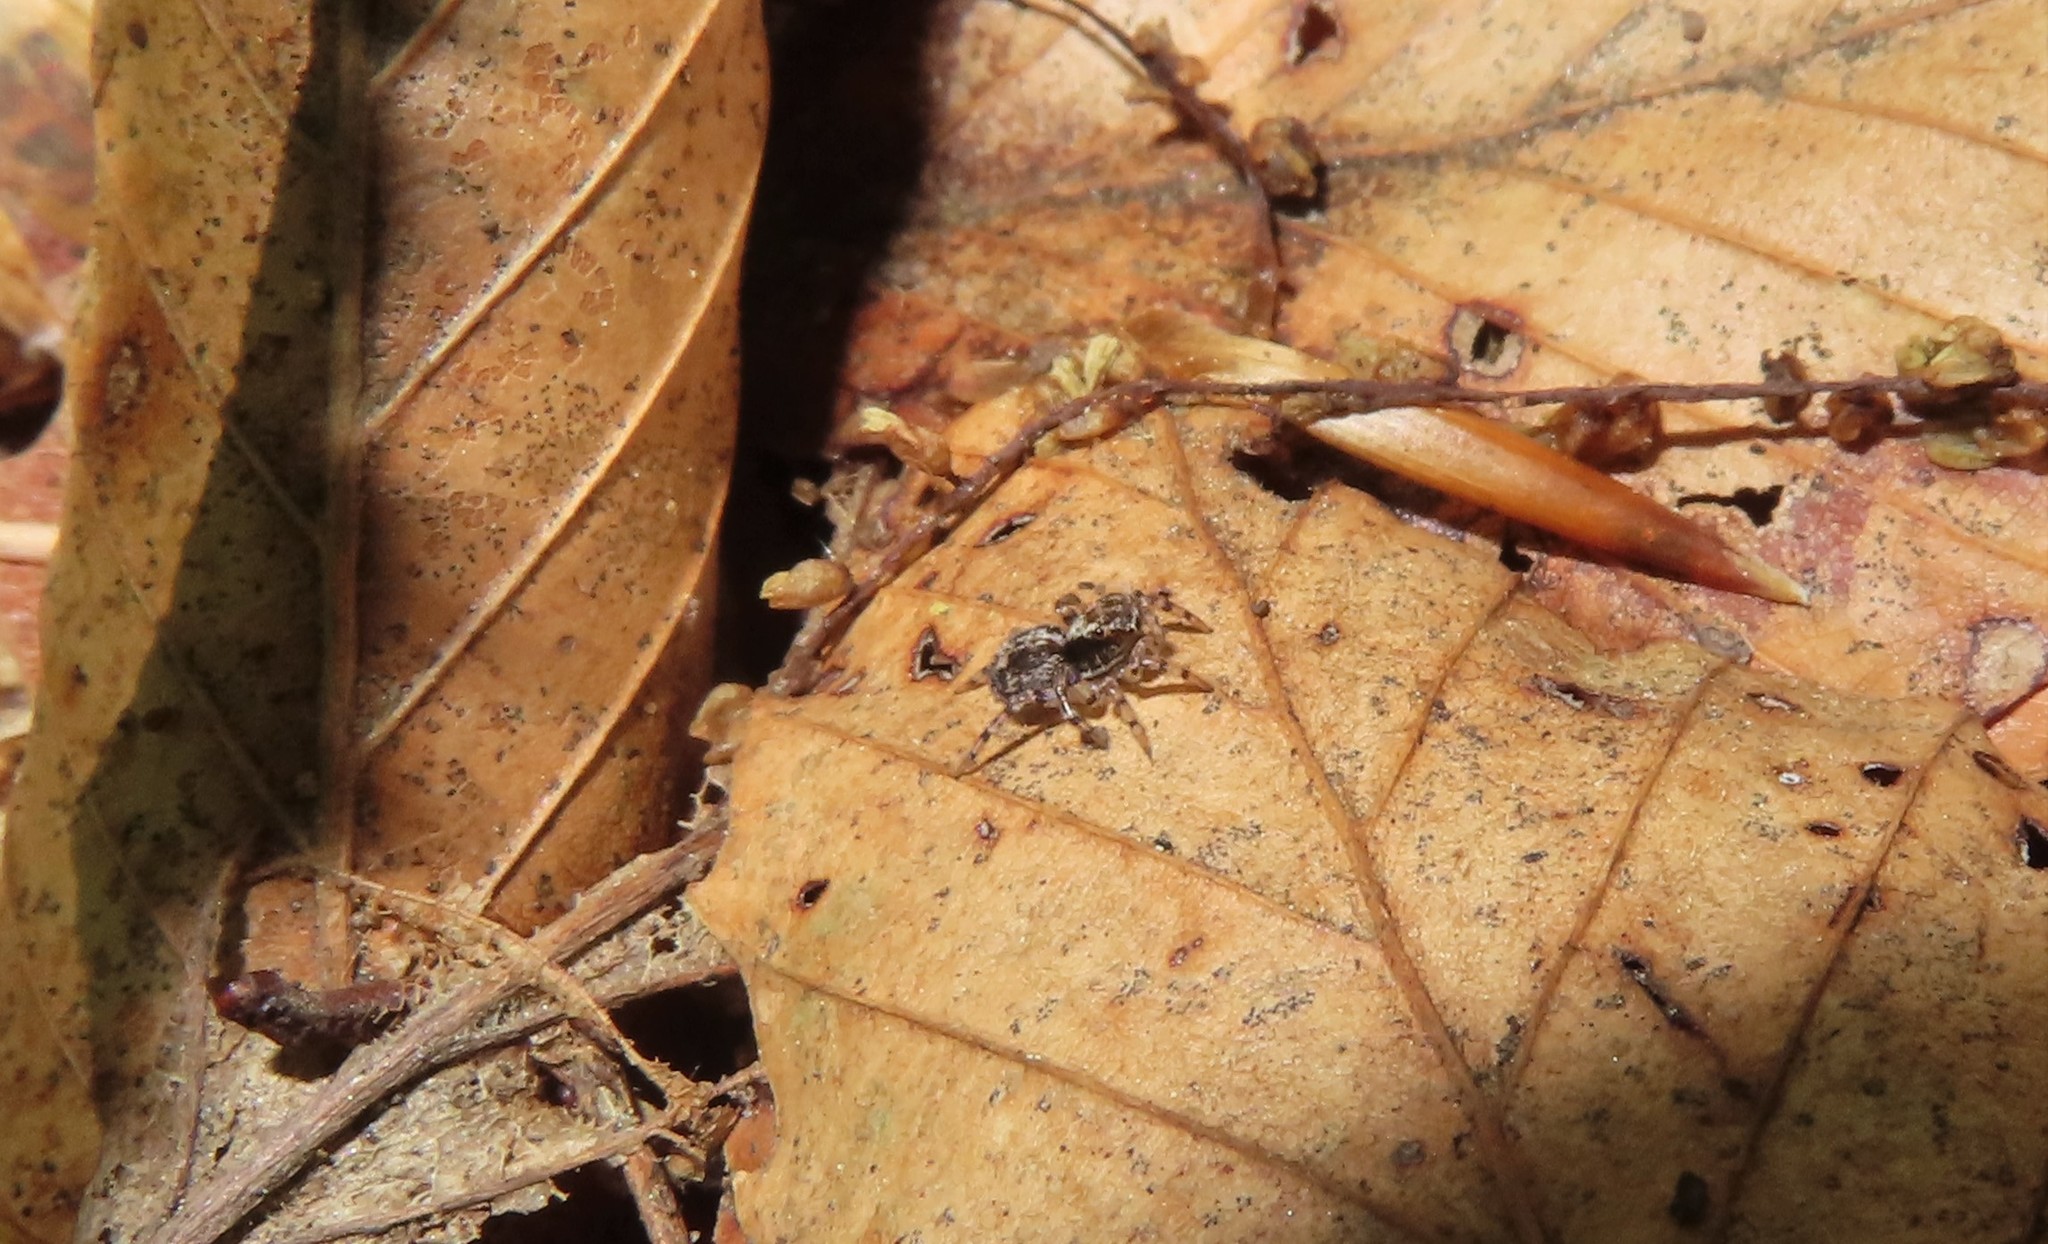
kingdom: Animalia
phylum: Arthropoda
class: Arachnida
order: Araneae
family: Salticidae
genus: Naphrys
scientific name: Naphrys pulex
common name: Flea jumping spider
